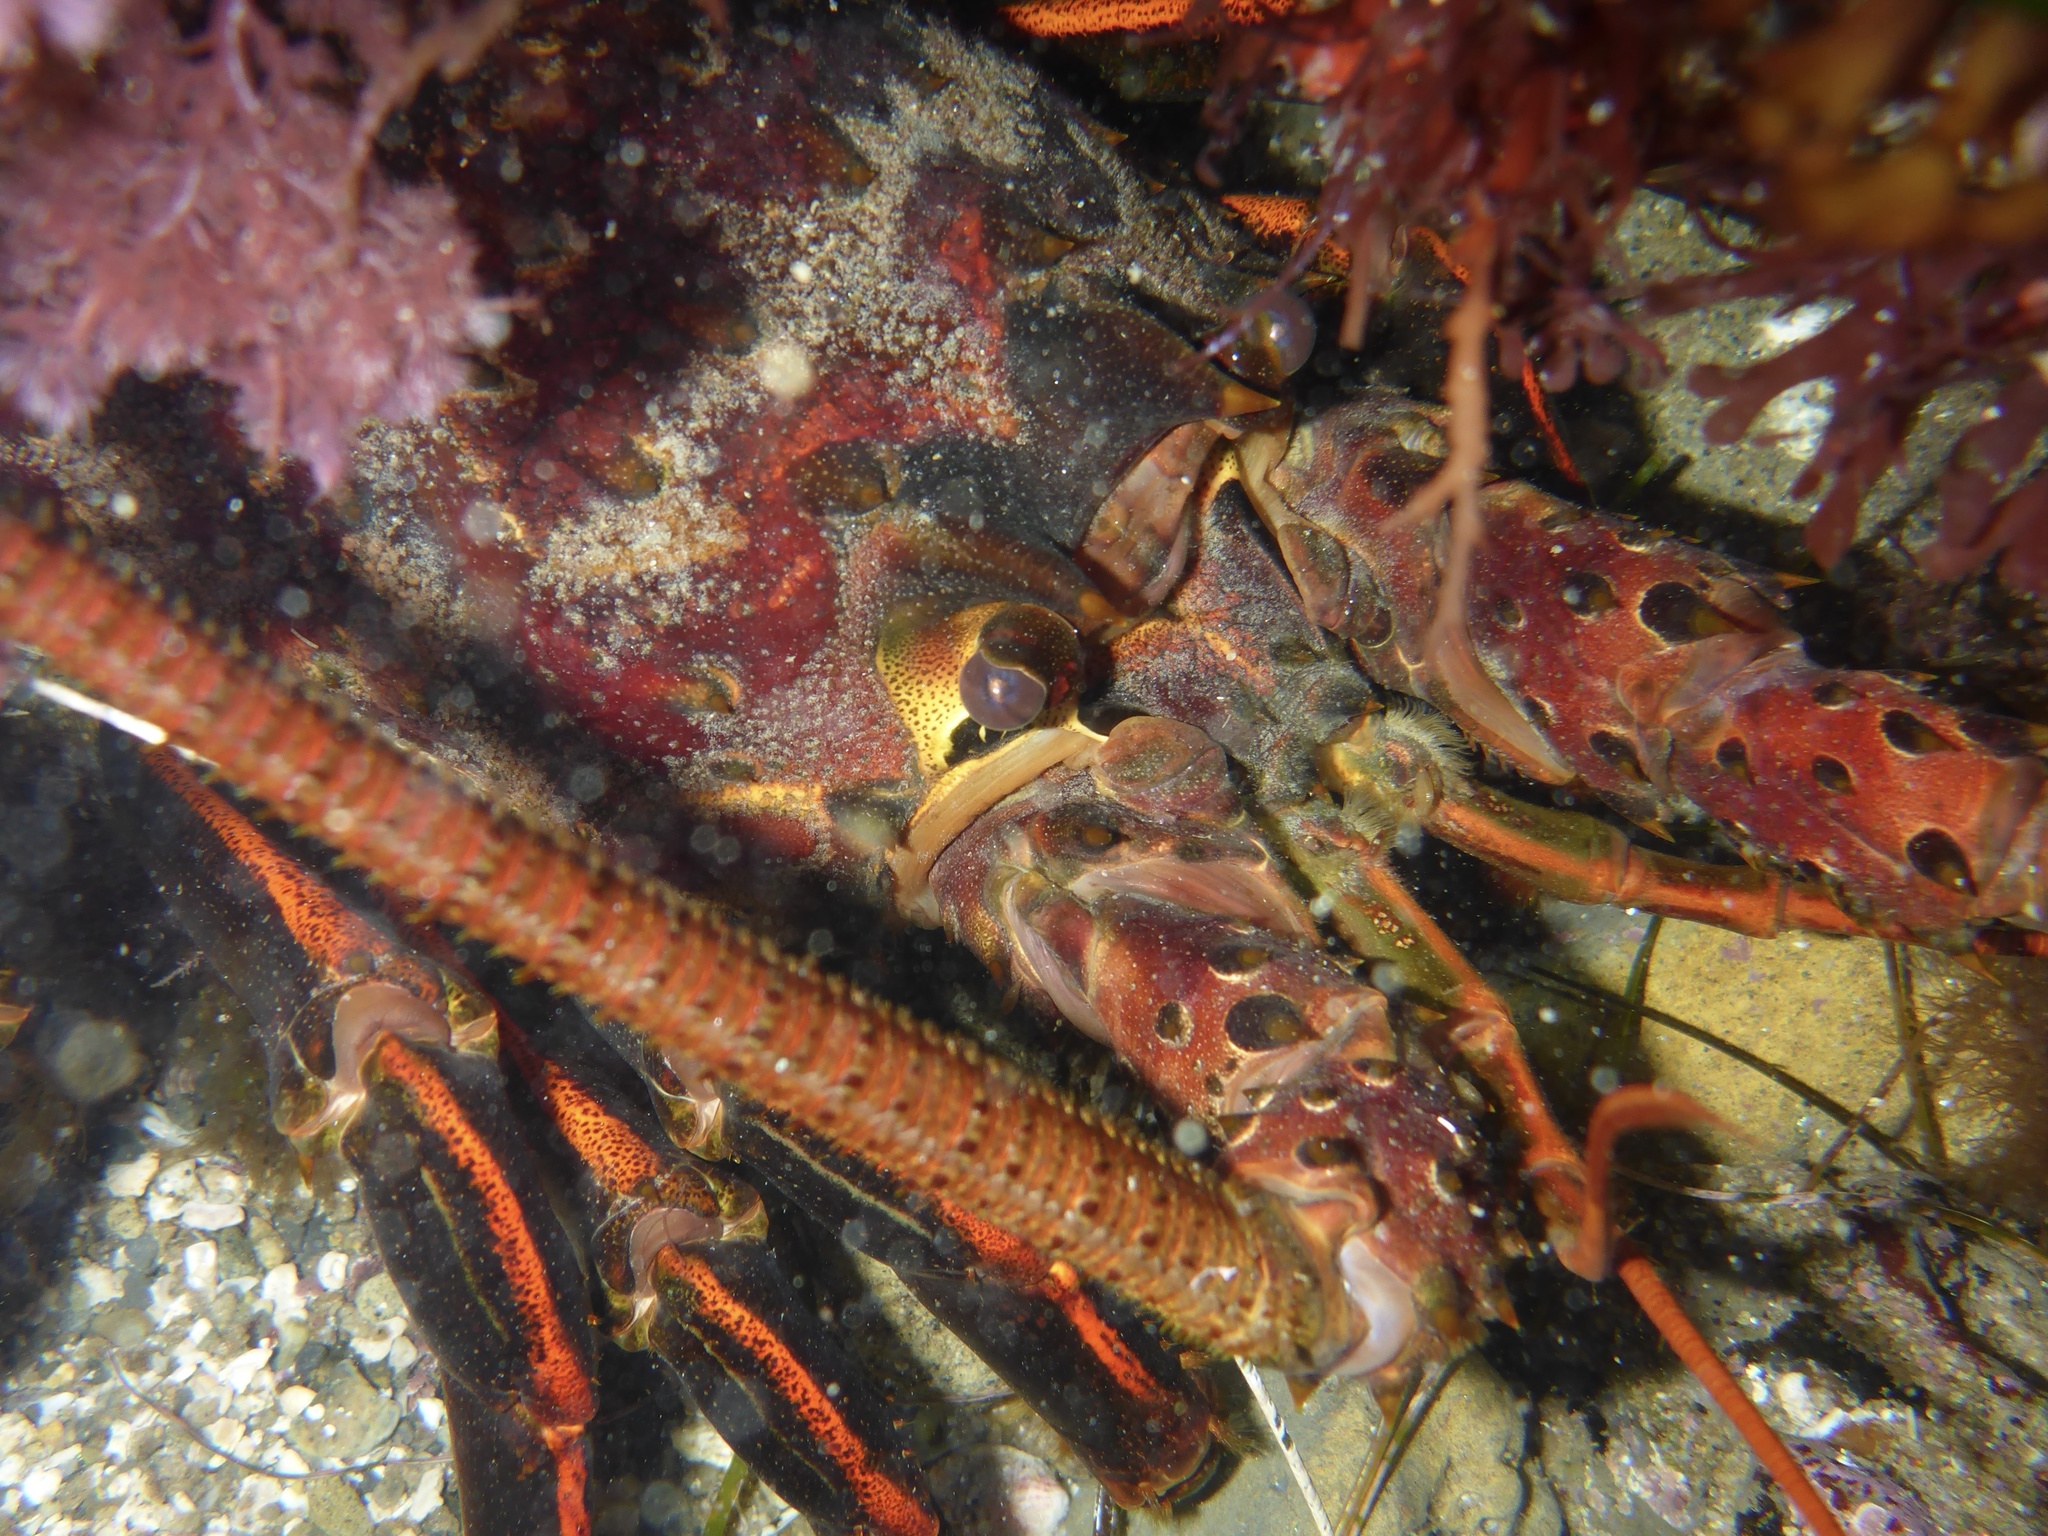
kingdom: Animalia
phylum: Arthropoda
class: Malacostraca
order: Decapoda
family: Palinuridae
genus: Panulirus
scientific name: Panulirus interruptus
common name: California spiny lobster
